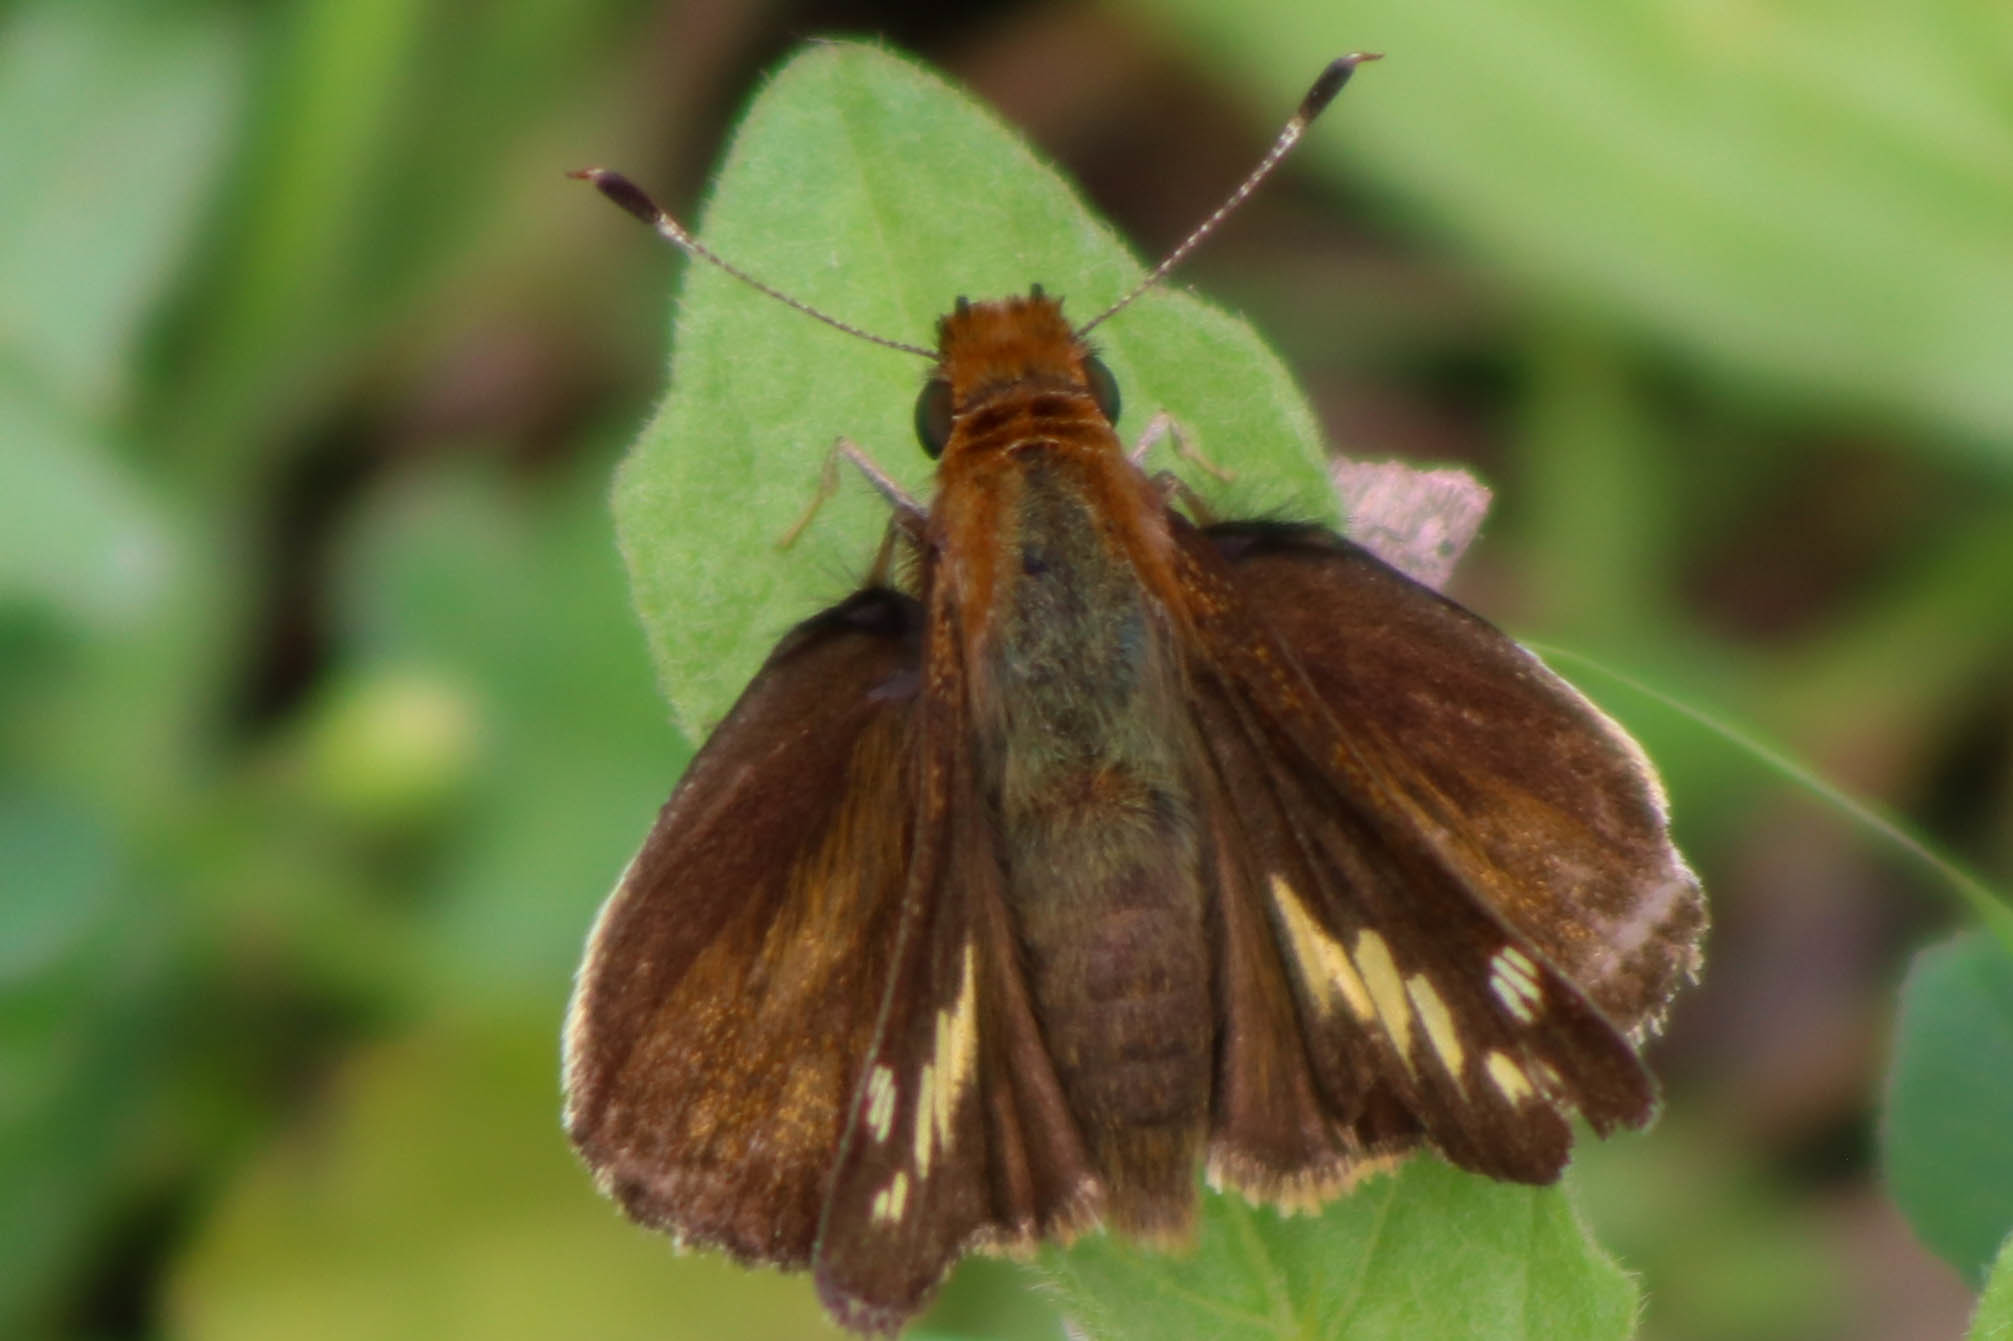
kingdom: Animalia
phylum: Arthropoda
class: Insecta
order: Lepidoptera
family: Hesperiidae
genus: Lon
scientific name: Lon zabulon
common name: Zabulon skipper
